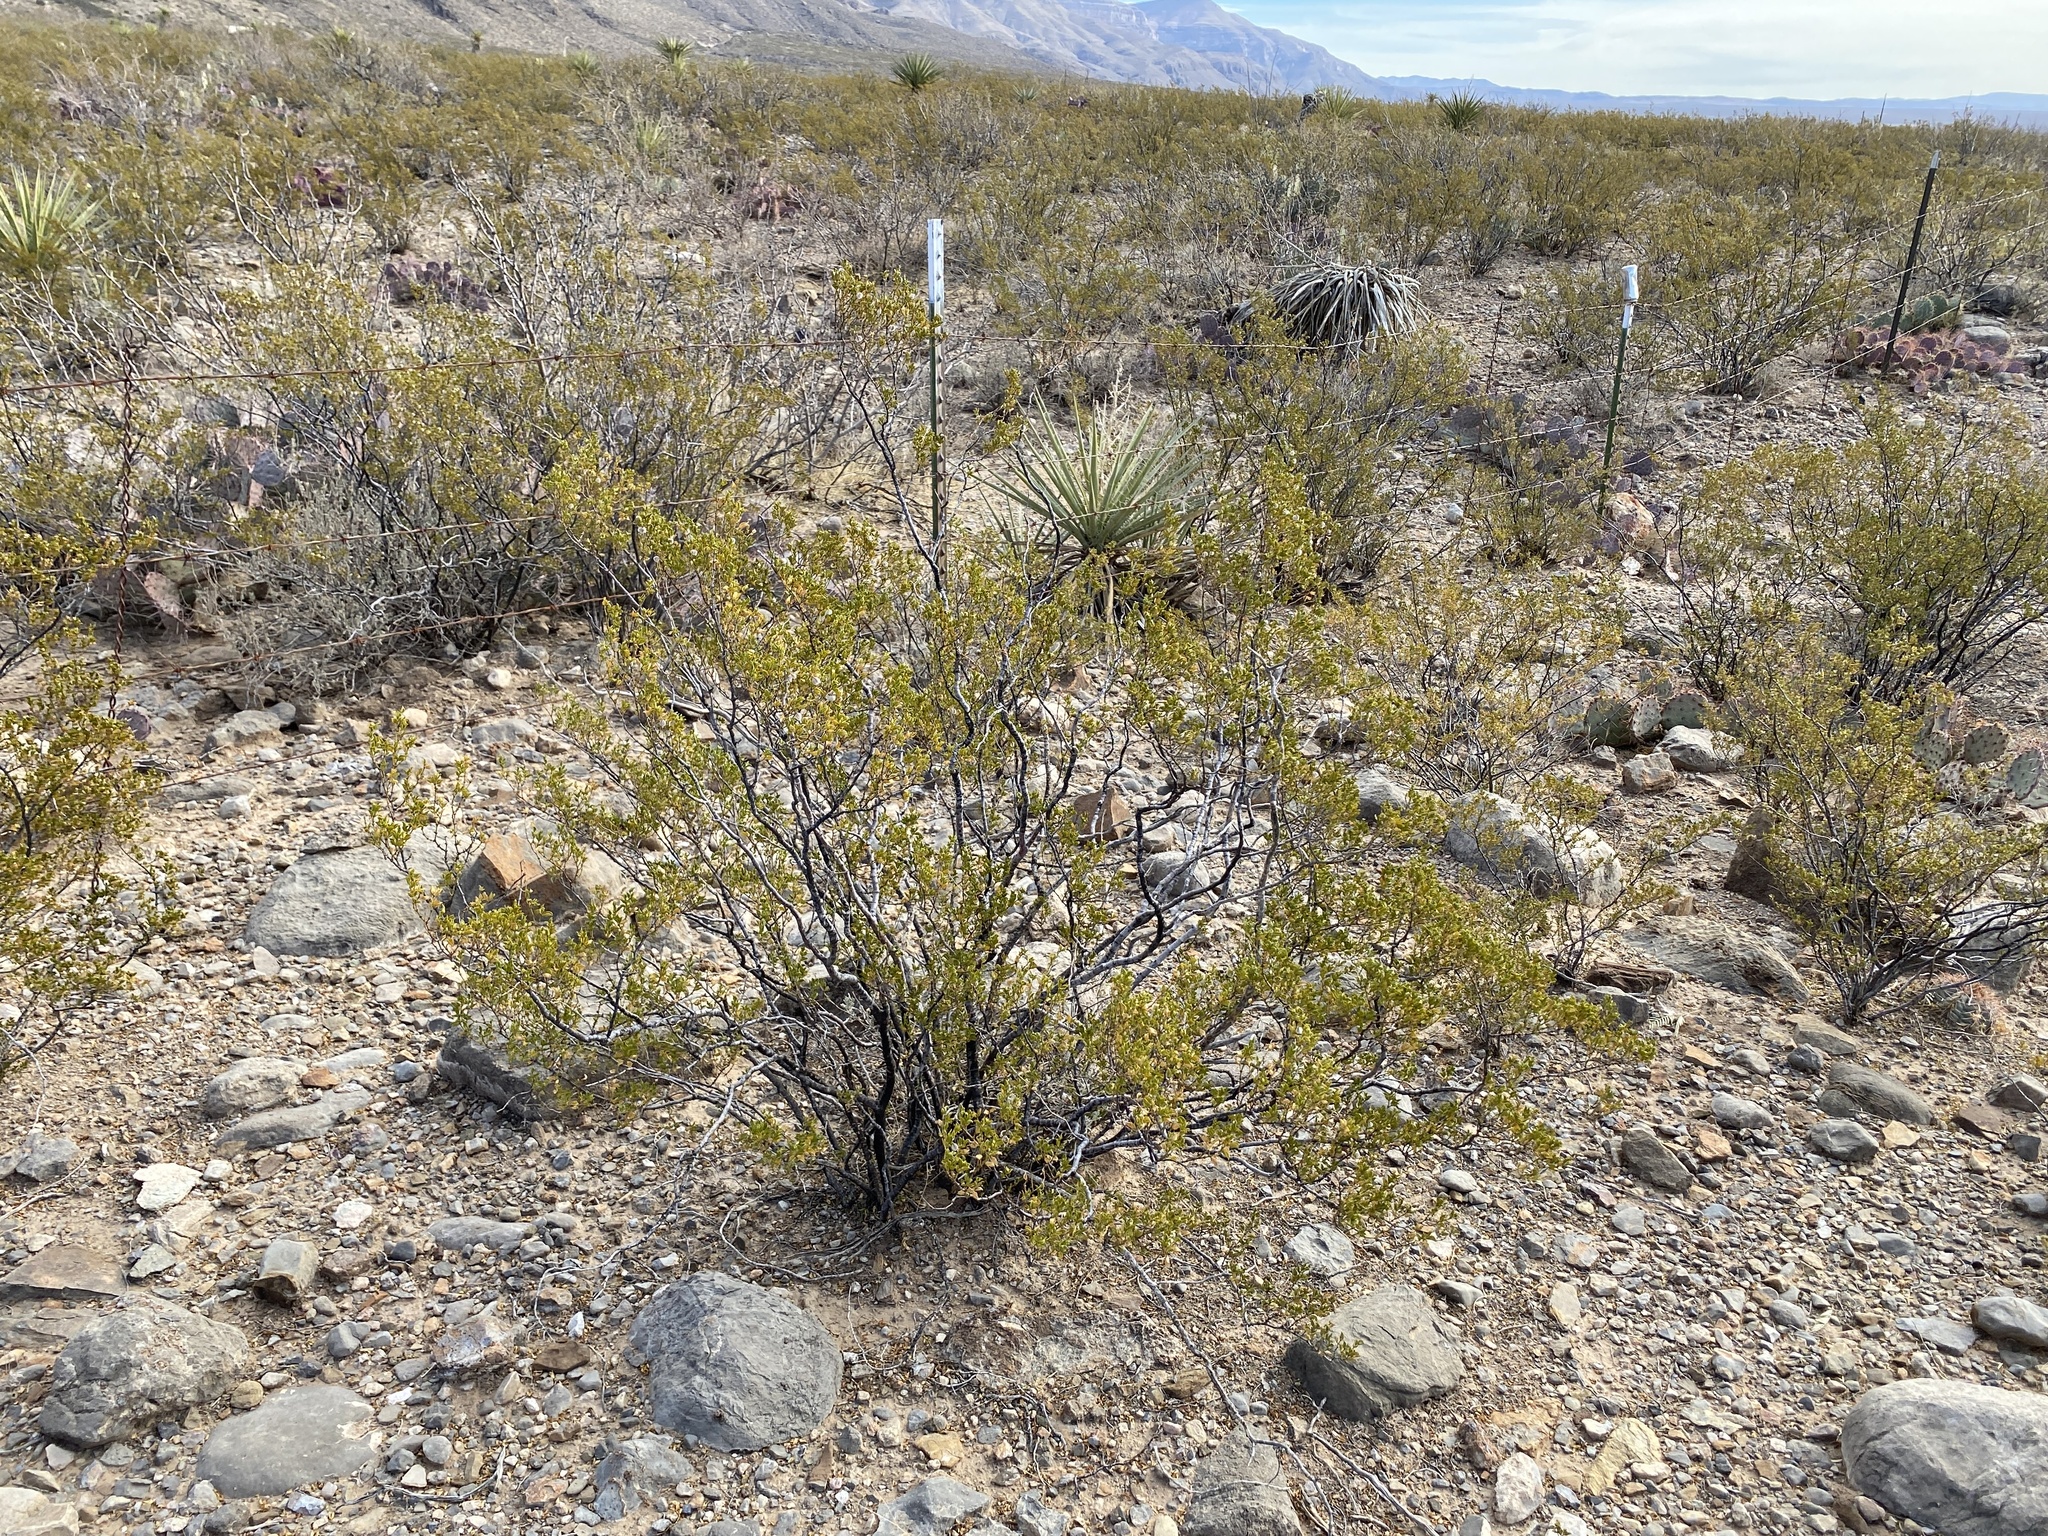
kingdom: Plantae
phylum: Tracheophyta
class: Magnoliopsida
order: Zygophyllales
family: Zygophyllaceae
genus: Larrea
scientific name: Larrea tridentata
